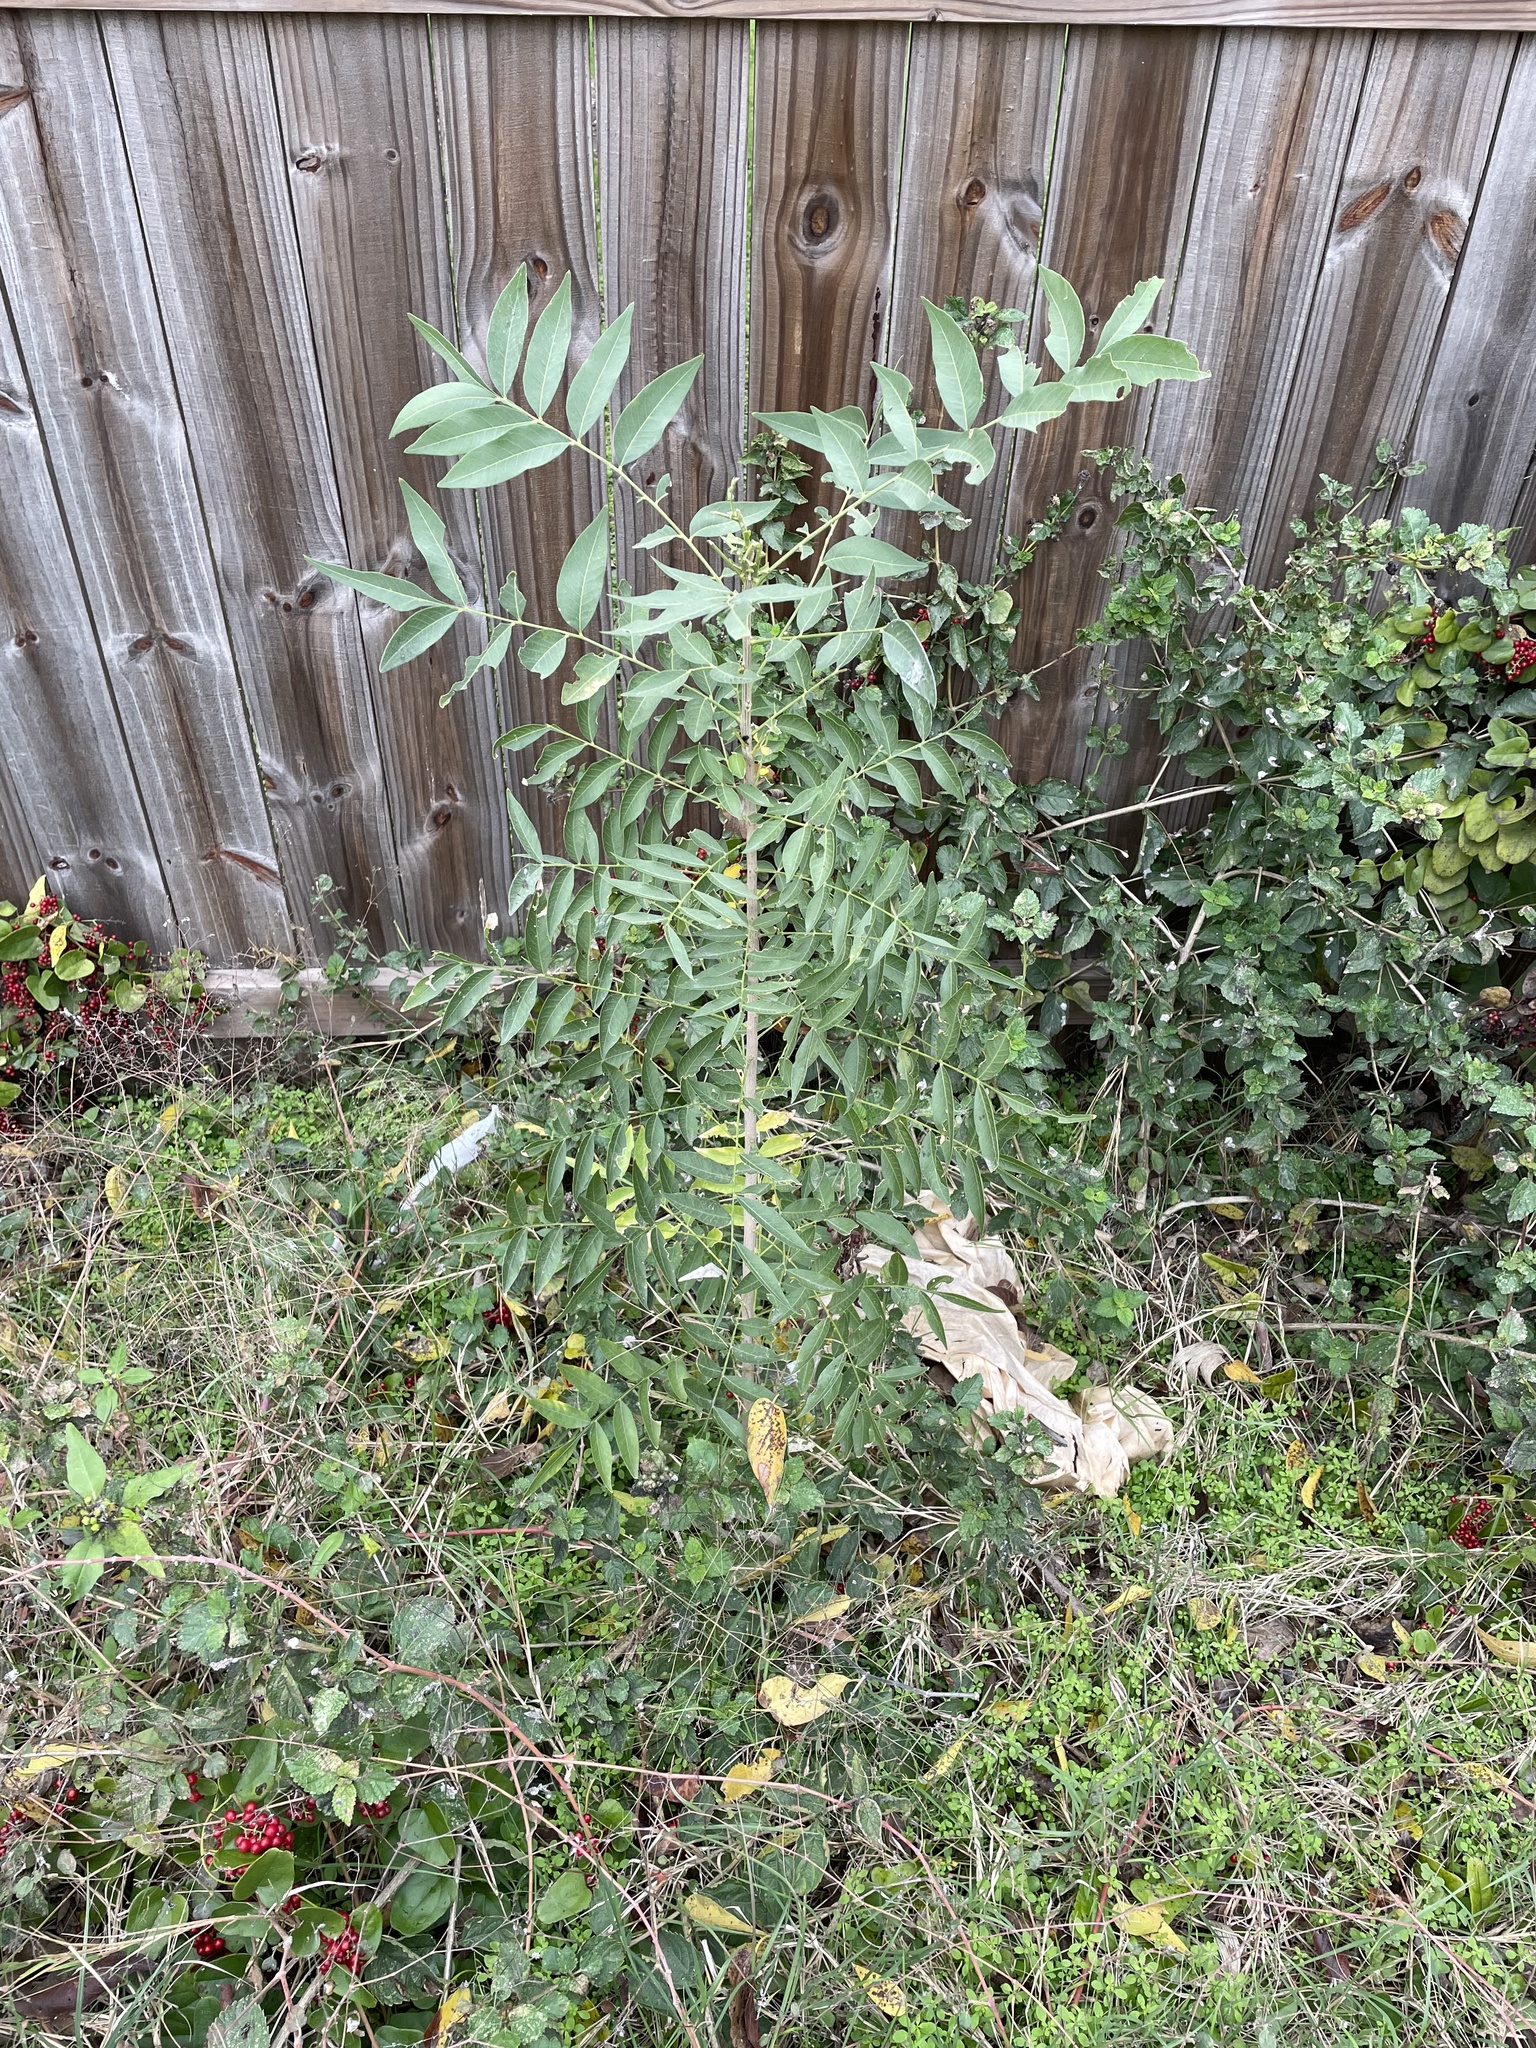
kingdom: Plantae
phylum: Tracheophyta
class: Magnoliopsida
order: Sapindales
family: Sapindaceae
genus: Sapindus
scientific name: Sapindus drummondii
